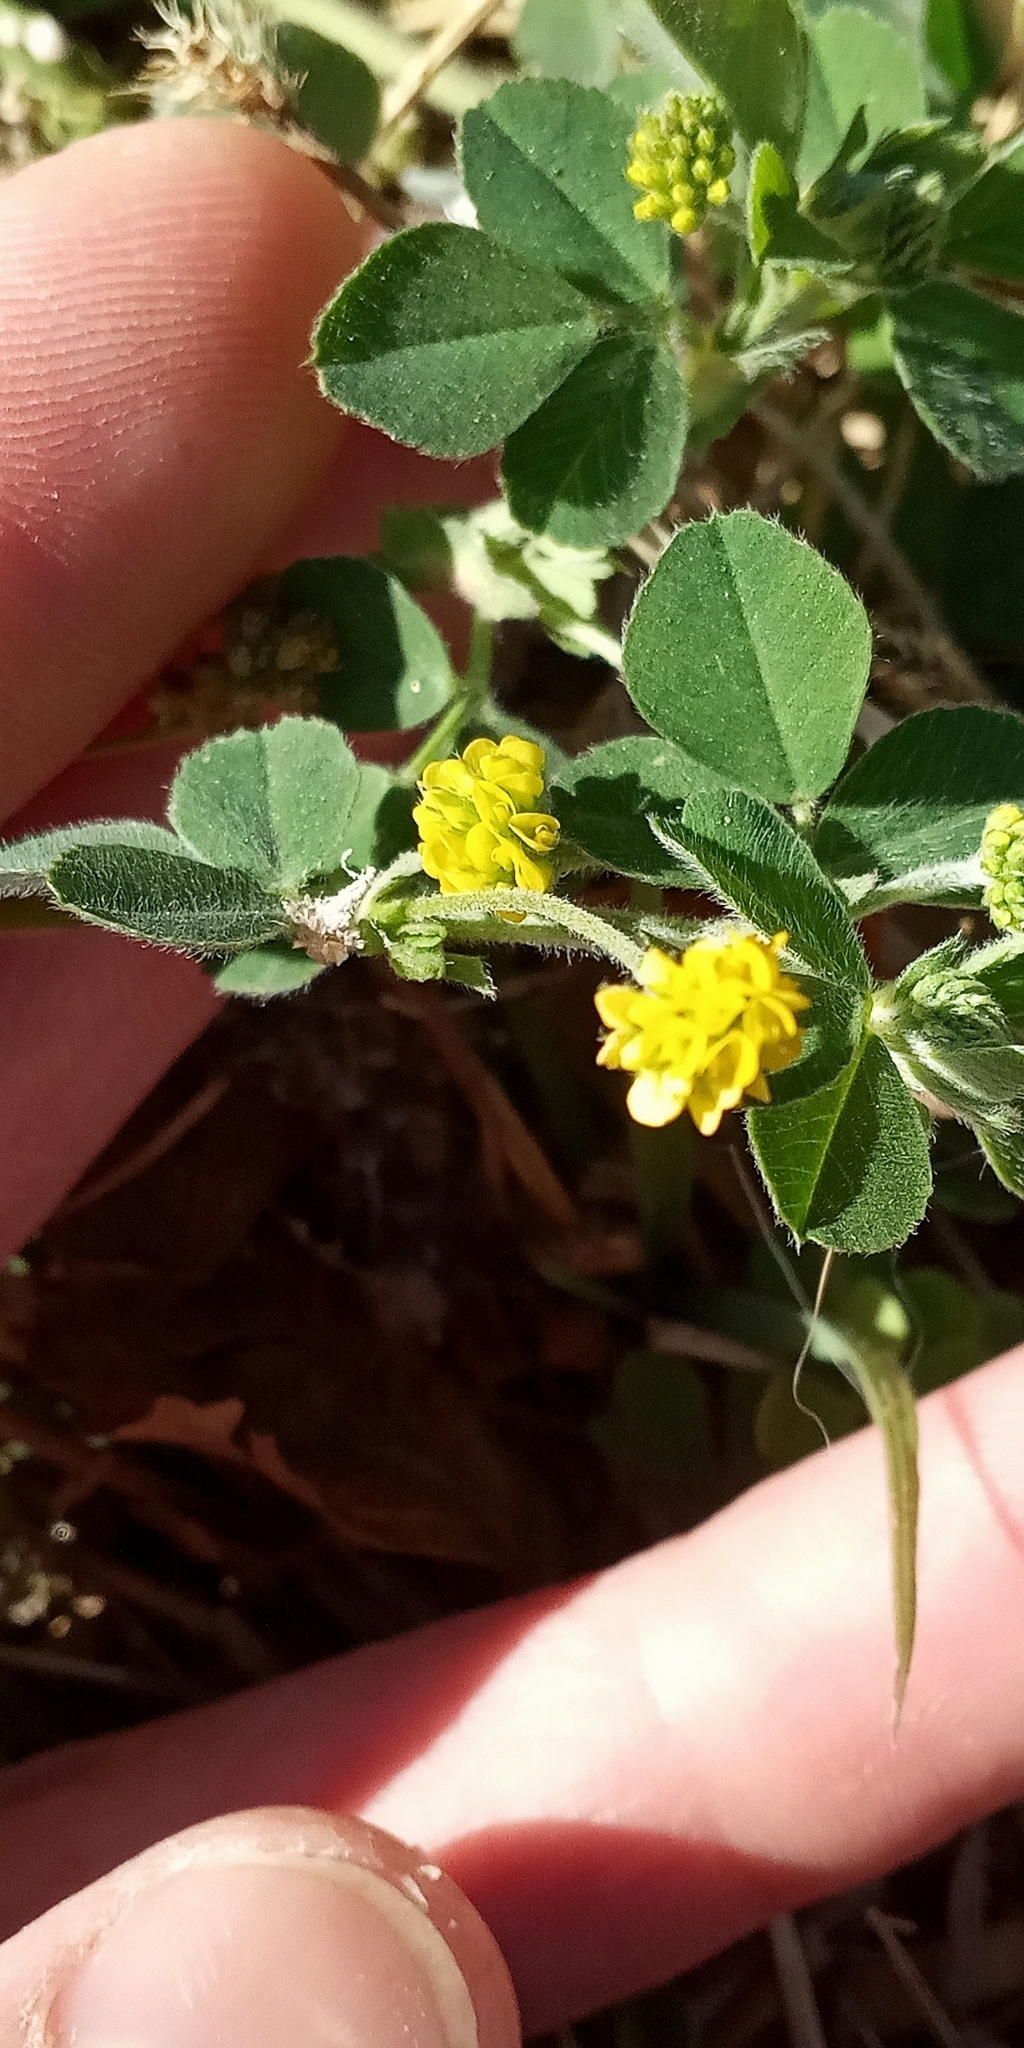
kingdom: Plantae
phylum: Tracheophyta
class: Magnoliopsida
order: Fabales
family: Fabaceae
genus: Medicago
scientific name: Medicago lupulina
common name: Black medick
